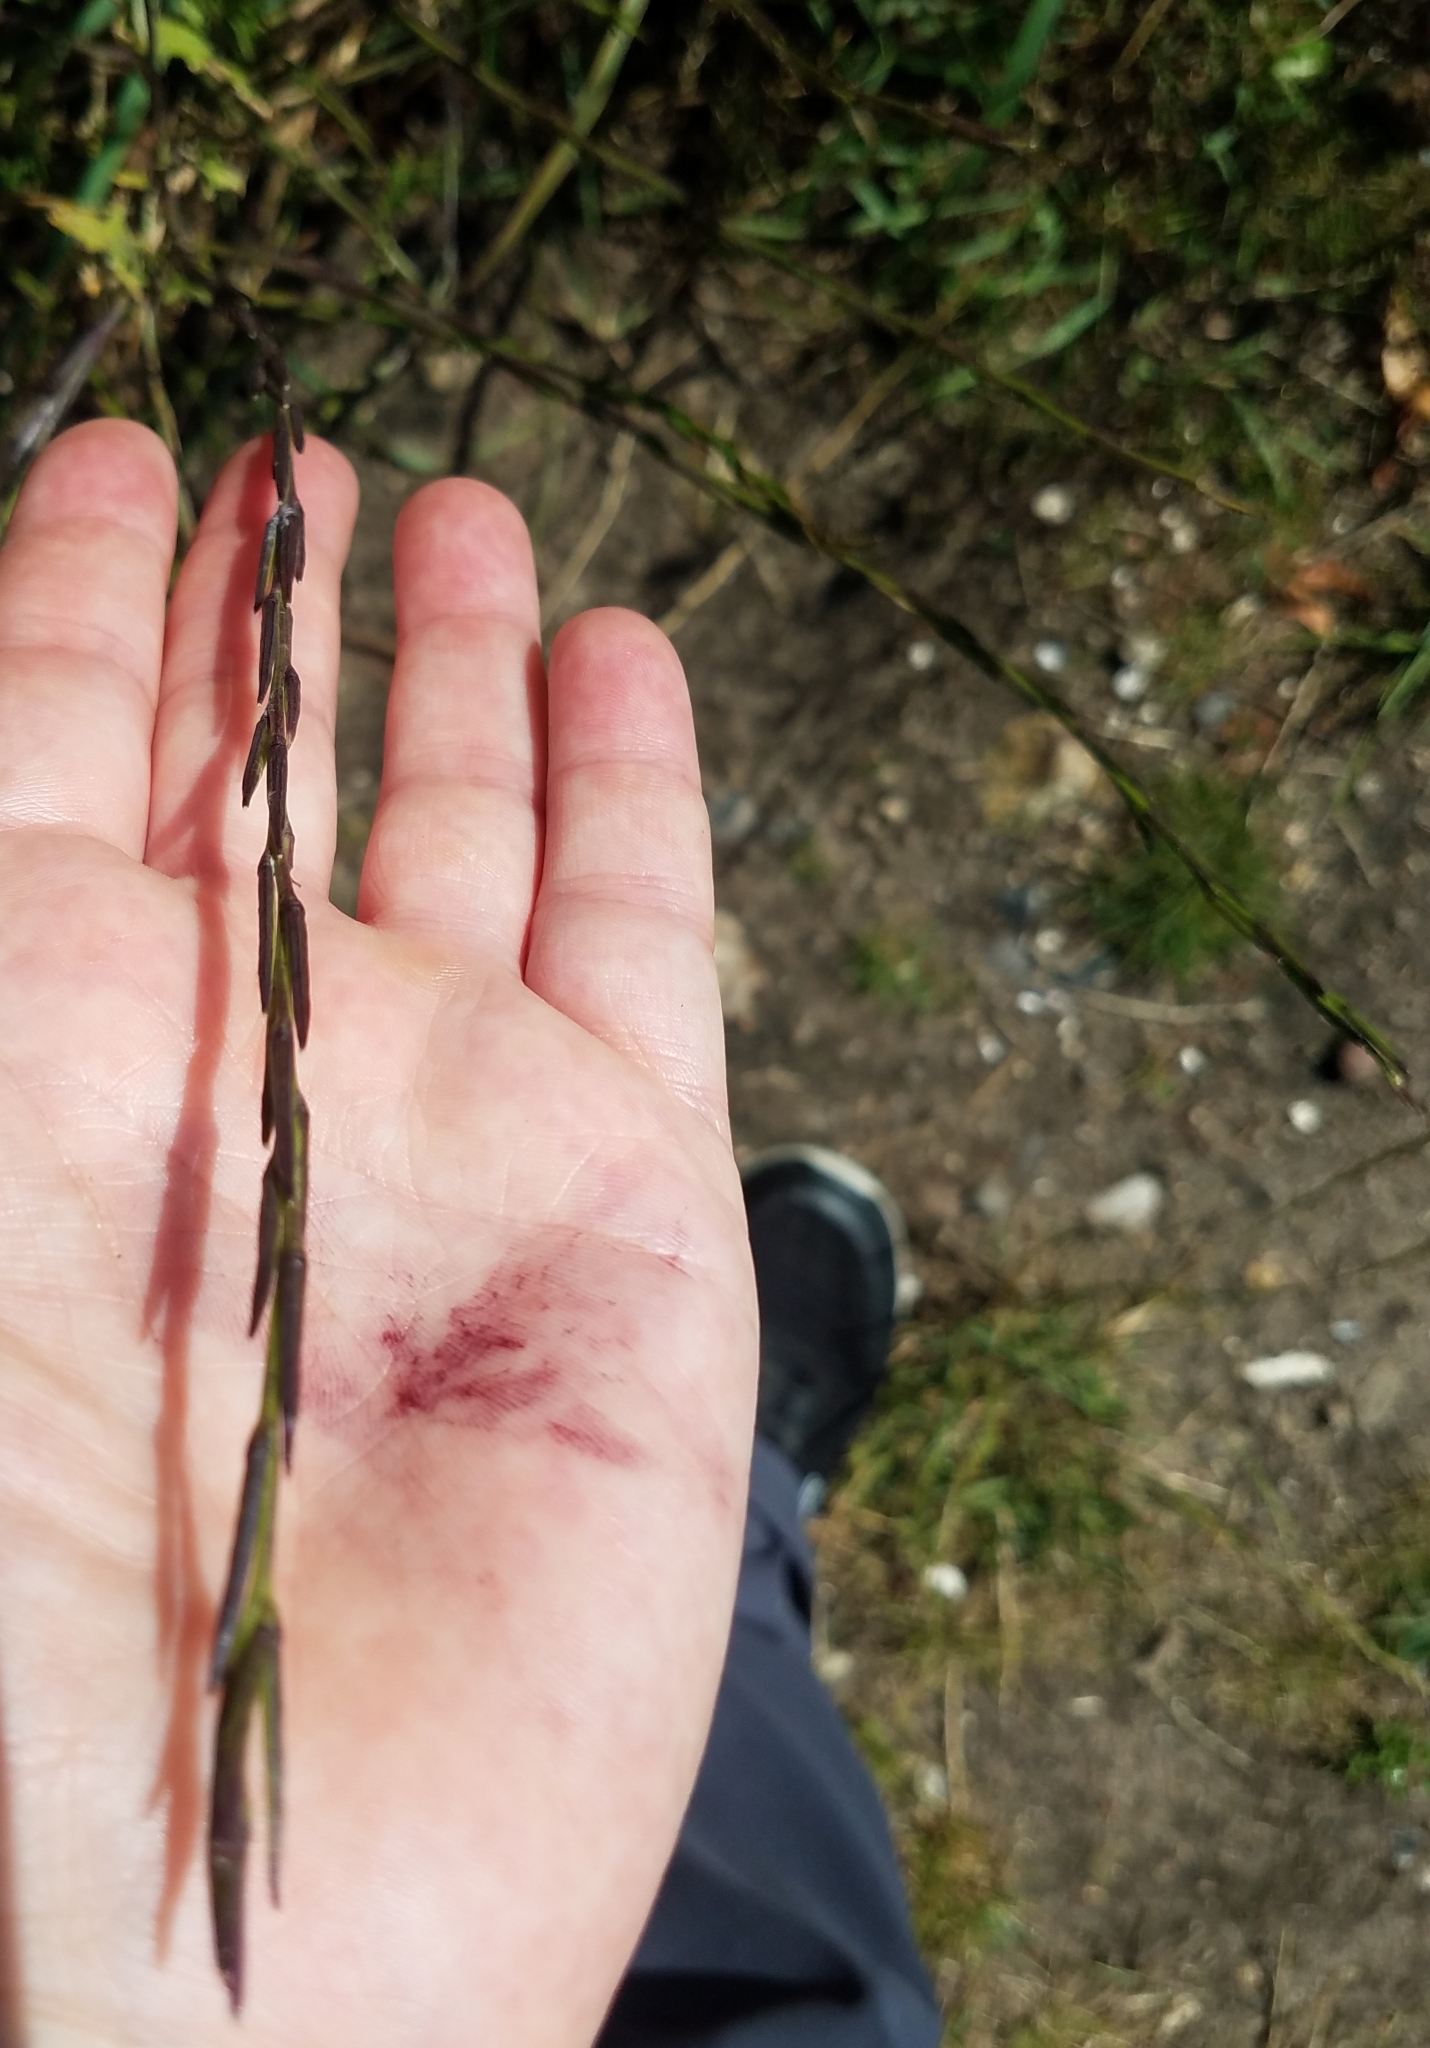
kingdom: Plantae
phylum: Tracheophyta
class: Magnoliopsida
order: Brassicales
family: Brassicaceae
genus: Sisymbrium
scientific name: Sisymbrium officinale
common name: Hedge mustard
